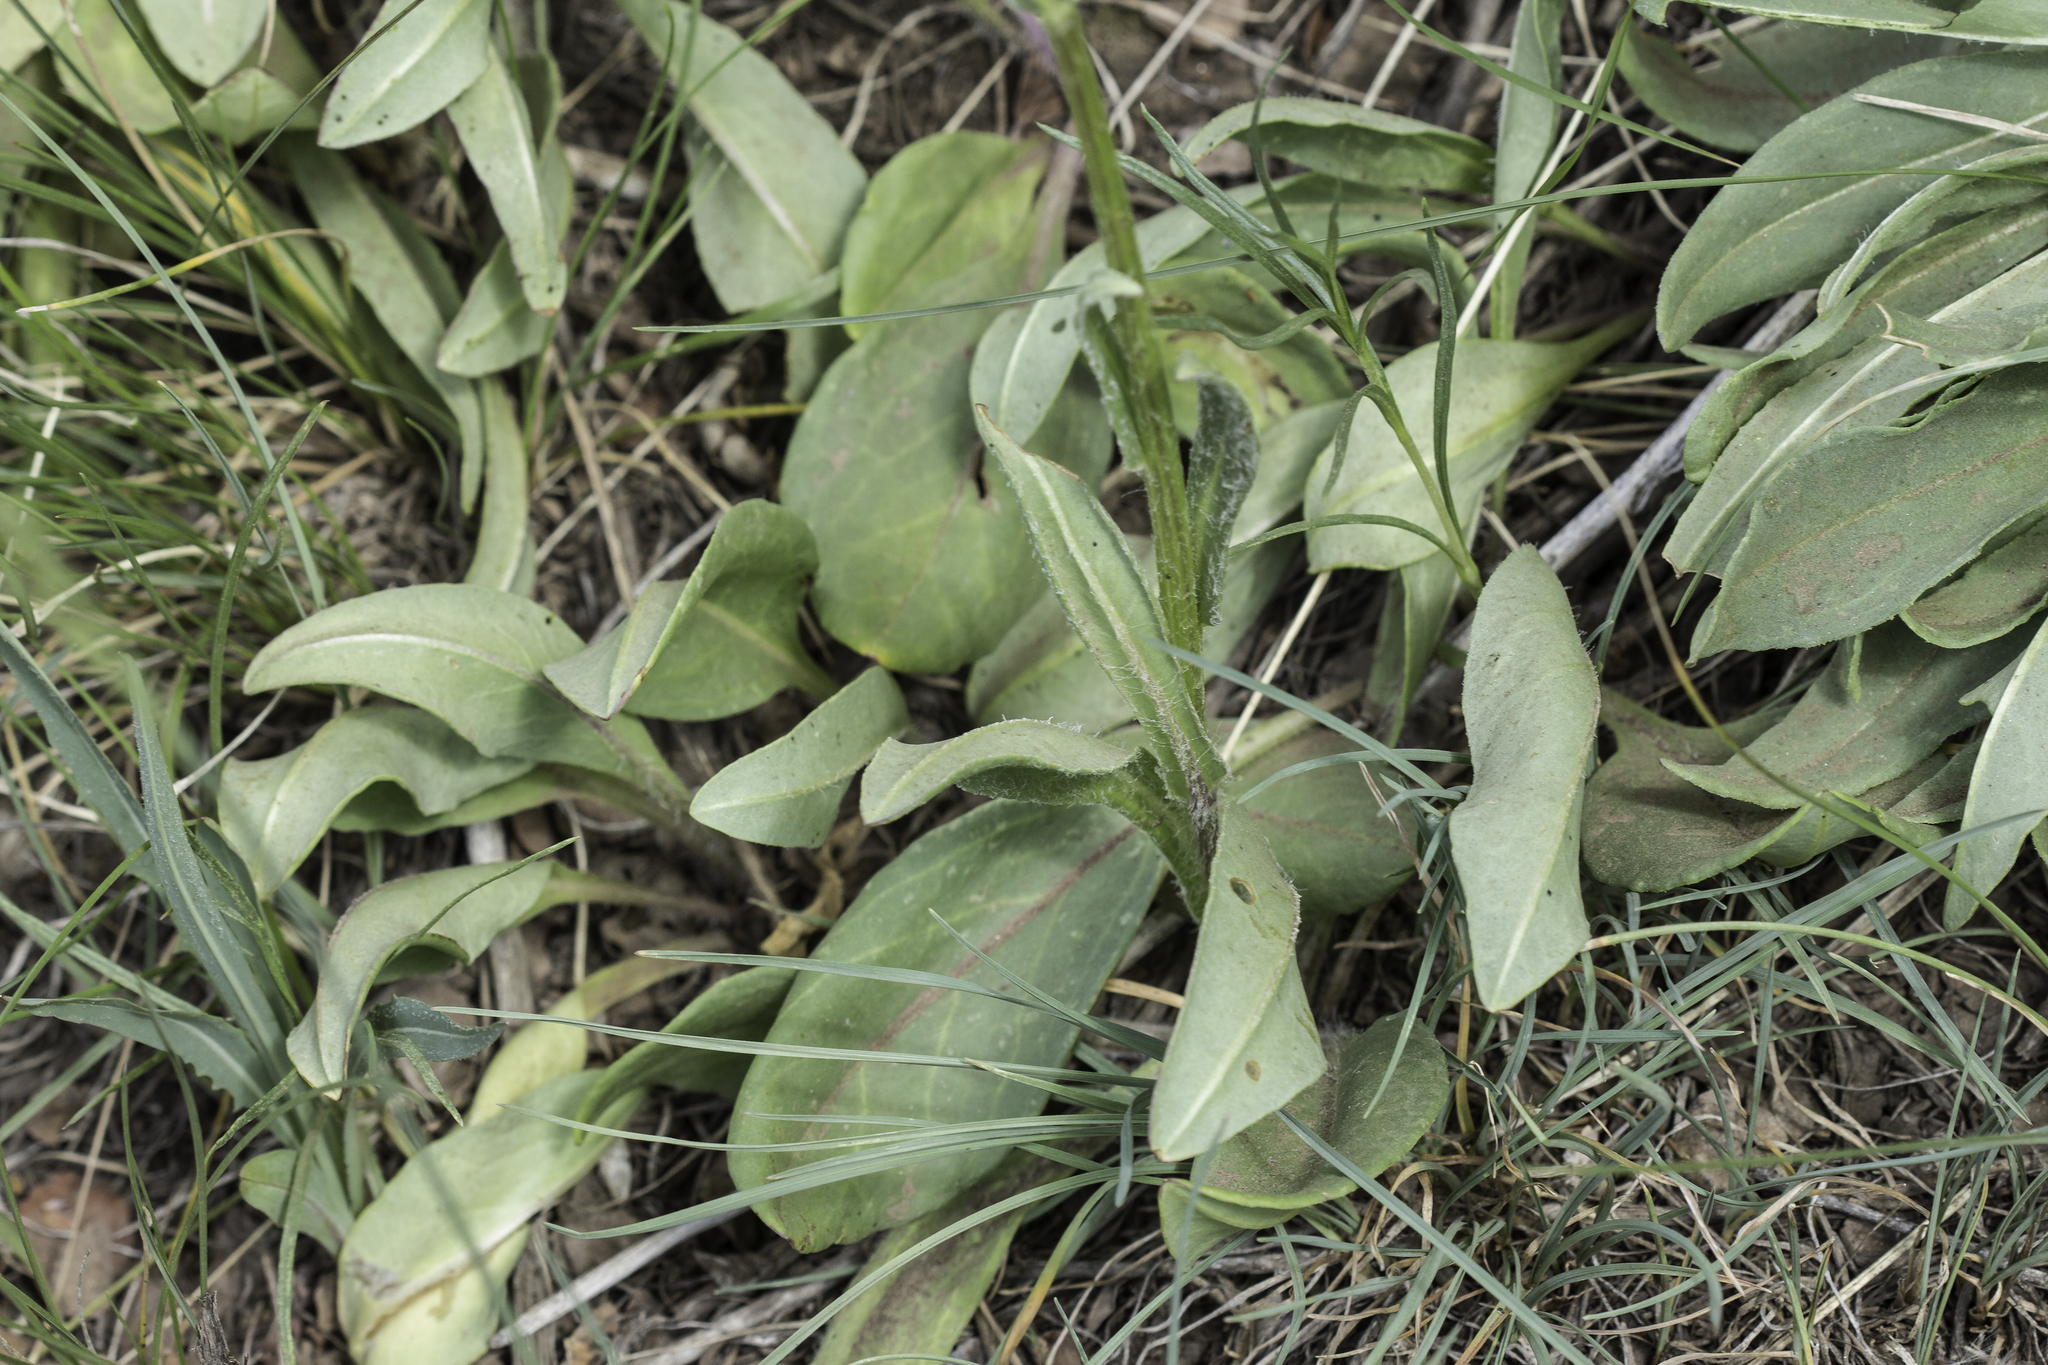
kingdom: Plantae
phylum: Tracheophyta
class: Magnoliopsida
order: Asterales
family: Asteraceae
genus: Senecio
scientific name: Senecio integerrimus
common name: Gaugeplant
